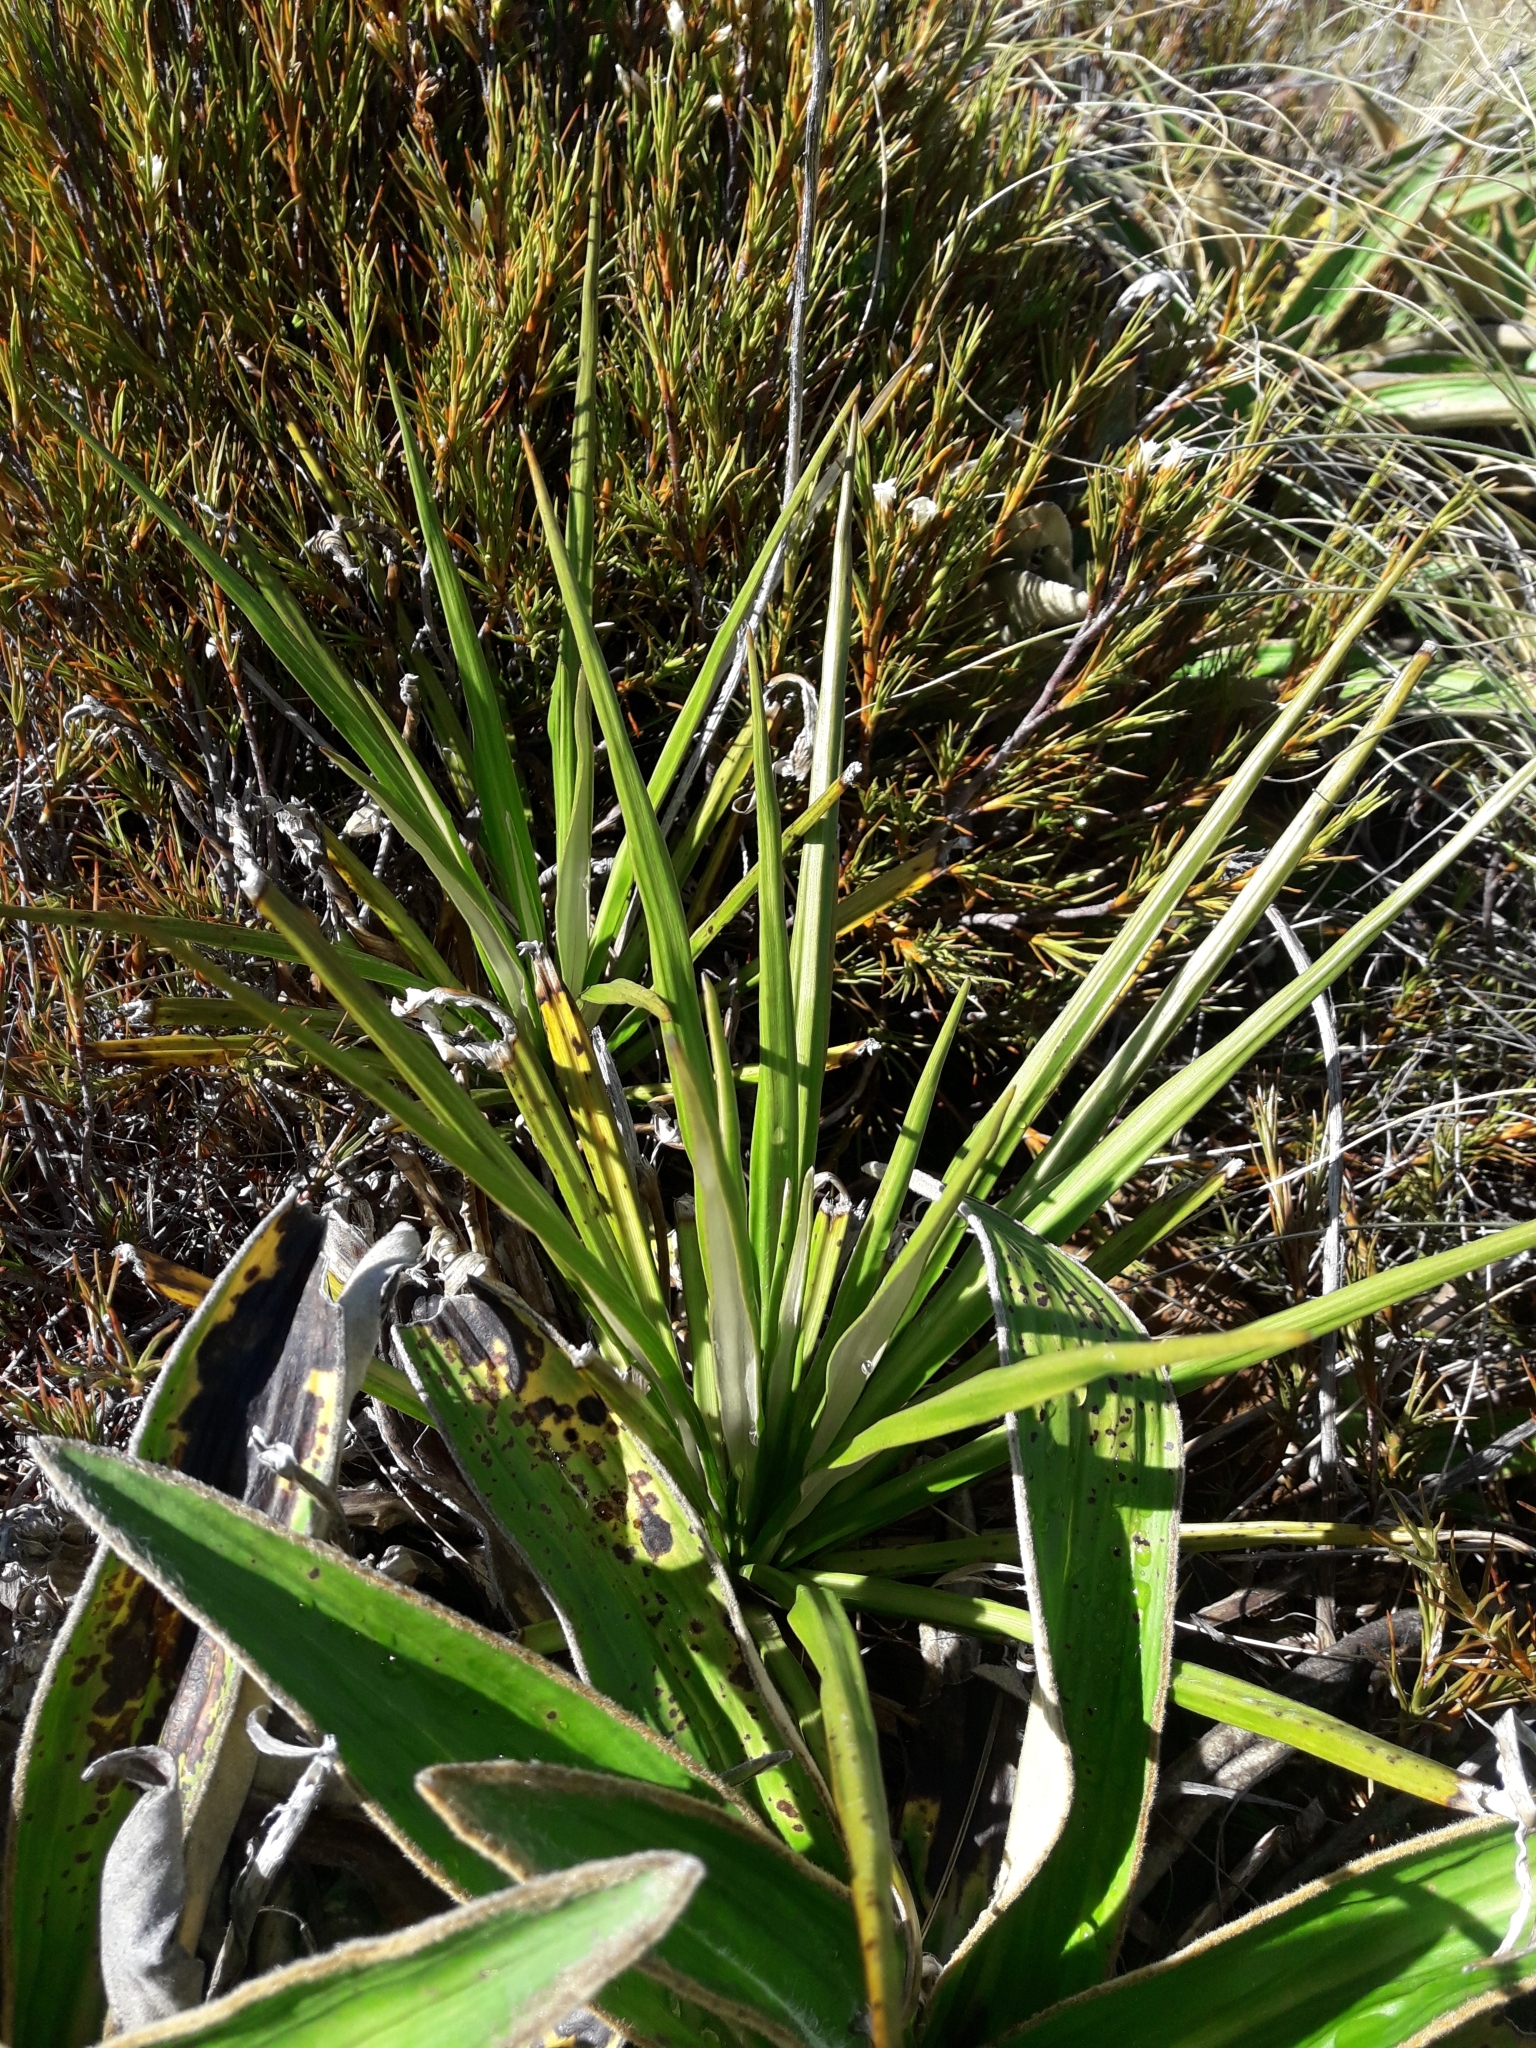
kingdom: Plantae
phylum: Tracheophyta
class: Magnoliopsida
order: Asterales
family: Asteraceae
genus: Celmisia
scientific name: Celmisia petriei
